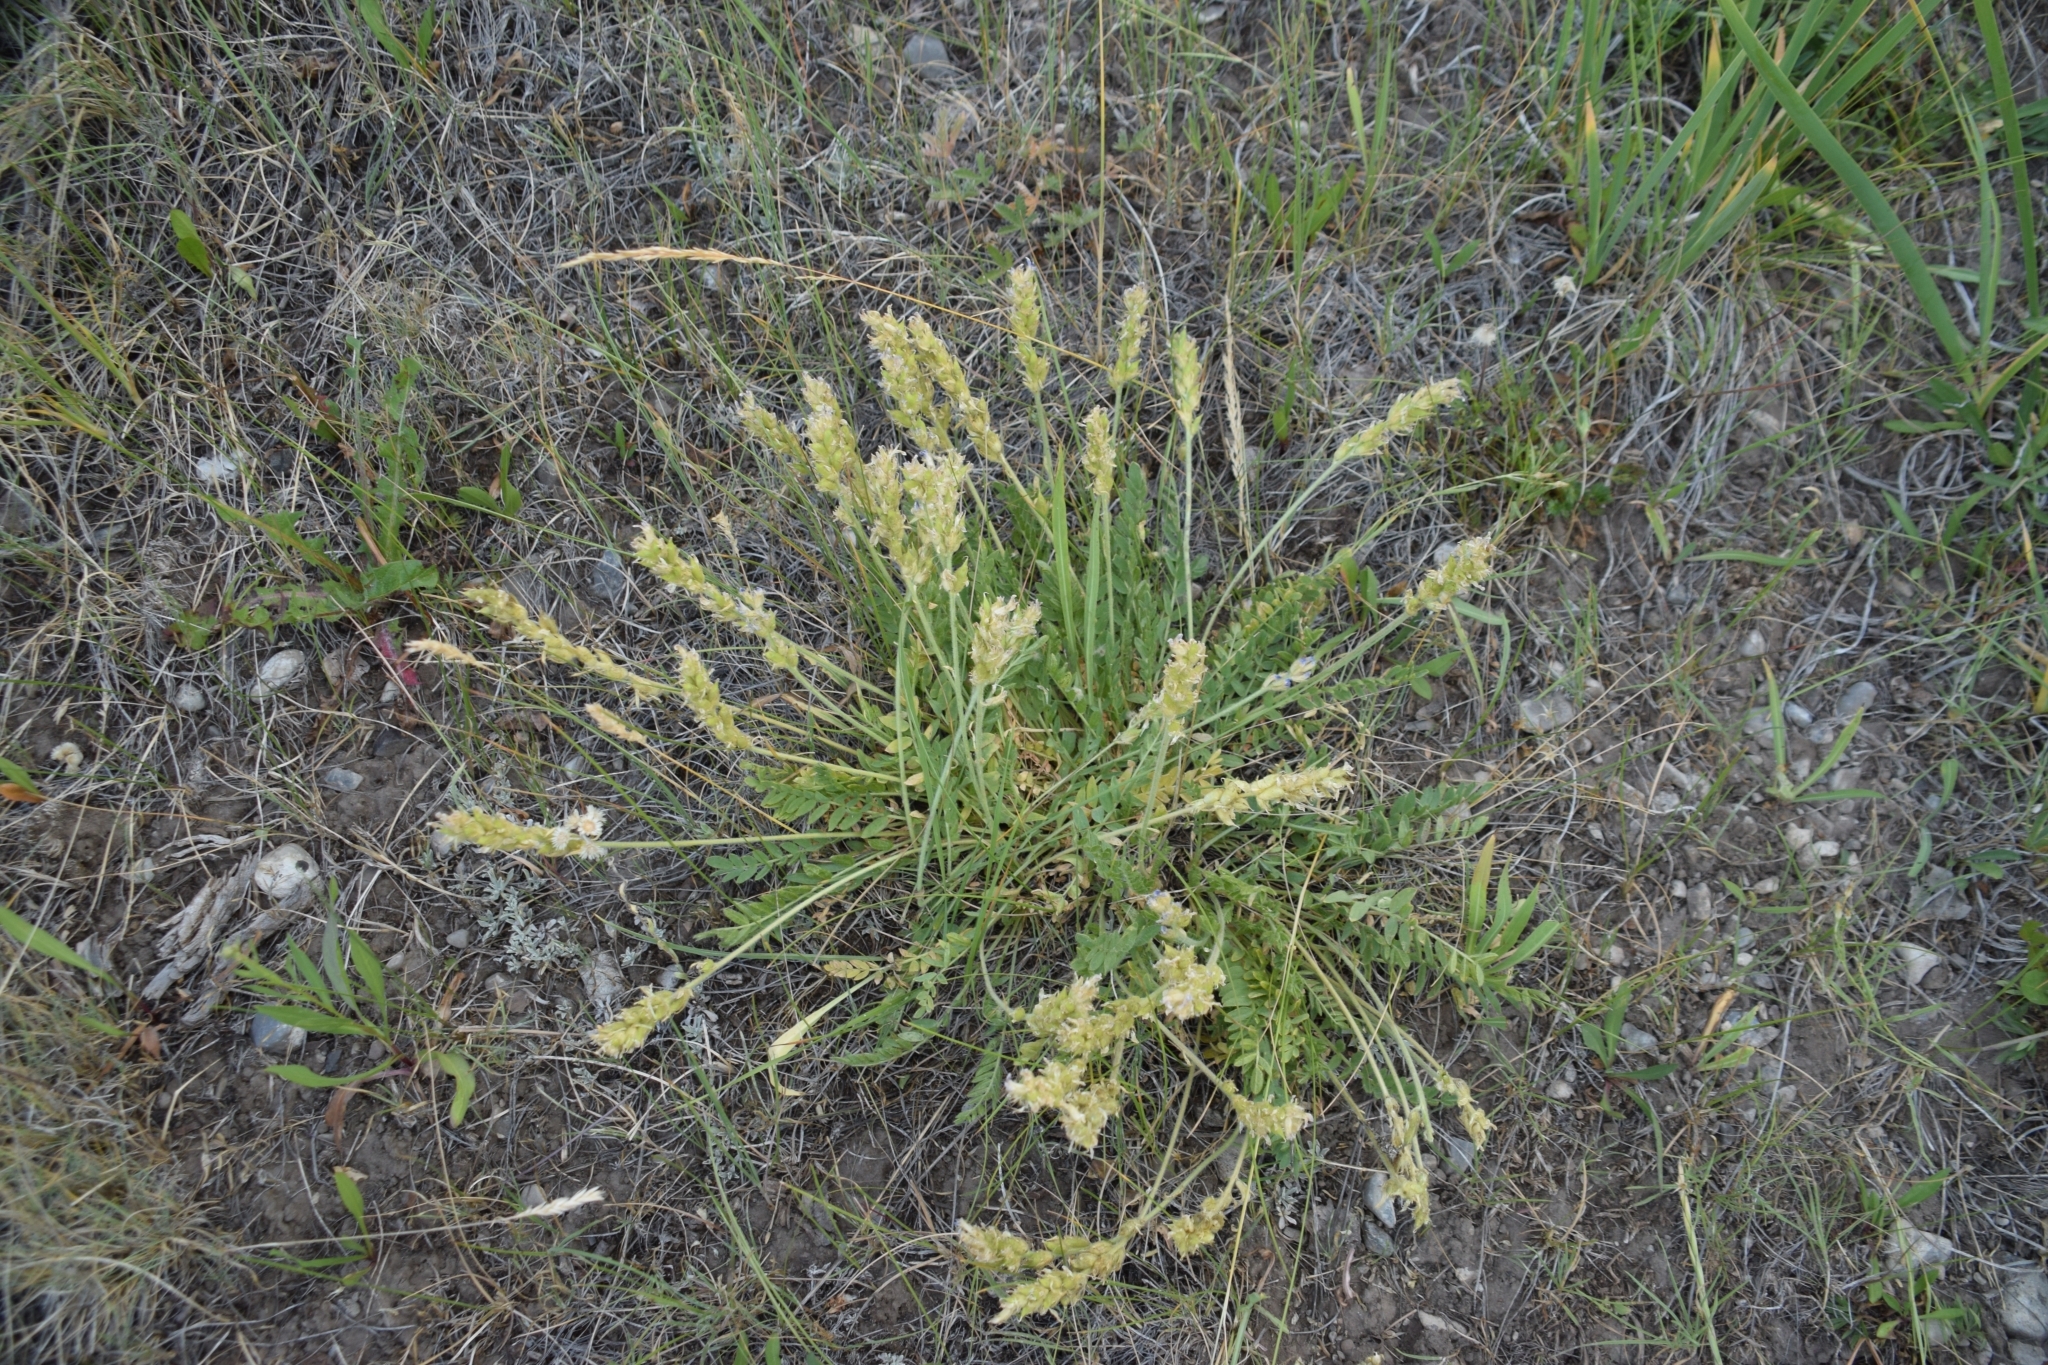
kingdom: Plantae
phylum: Tracheophyta
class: Magnoliopsida
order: Fabales
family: Fabaceae
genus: Oxytropis
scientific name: Oxytropis campestris
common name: Field locoweed
